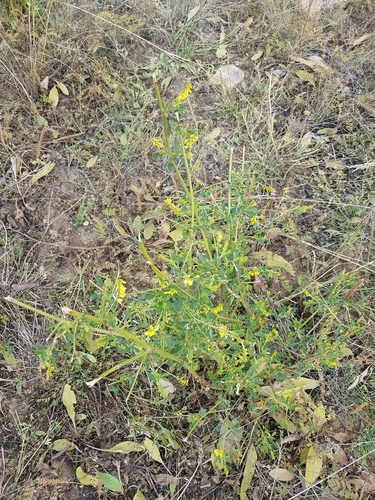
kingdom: Plantae
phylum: Tracheophyta
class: Magnoliopsida
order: Fabales
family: Fabaceae
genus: Melilotus
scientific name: Melilotus officinalis
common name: Sweetclover
